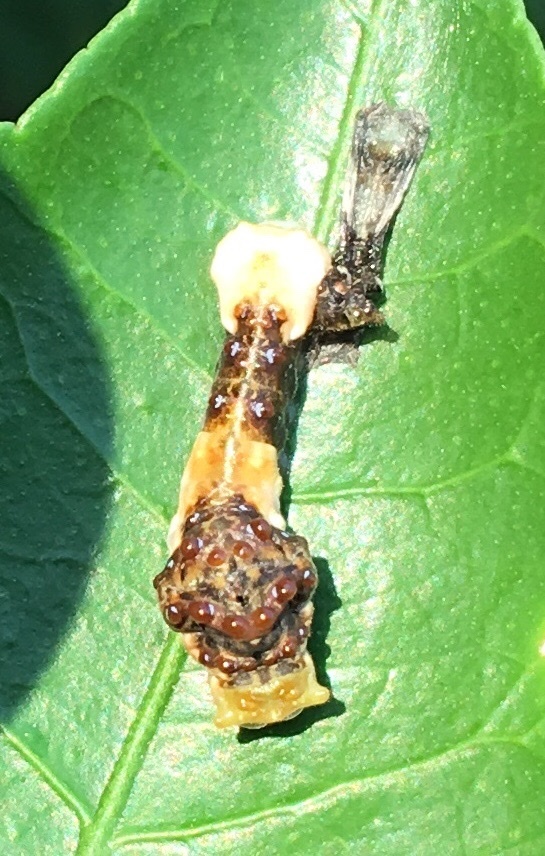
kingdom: Animalia
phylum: Arthropoda
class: Insecta
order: Lepidoptera
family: Papilionidae
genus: Papilio
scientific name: Papilio cresphontes
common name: Giant swallowtail
